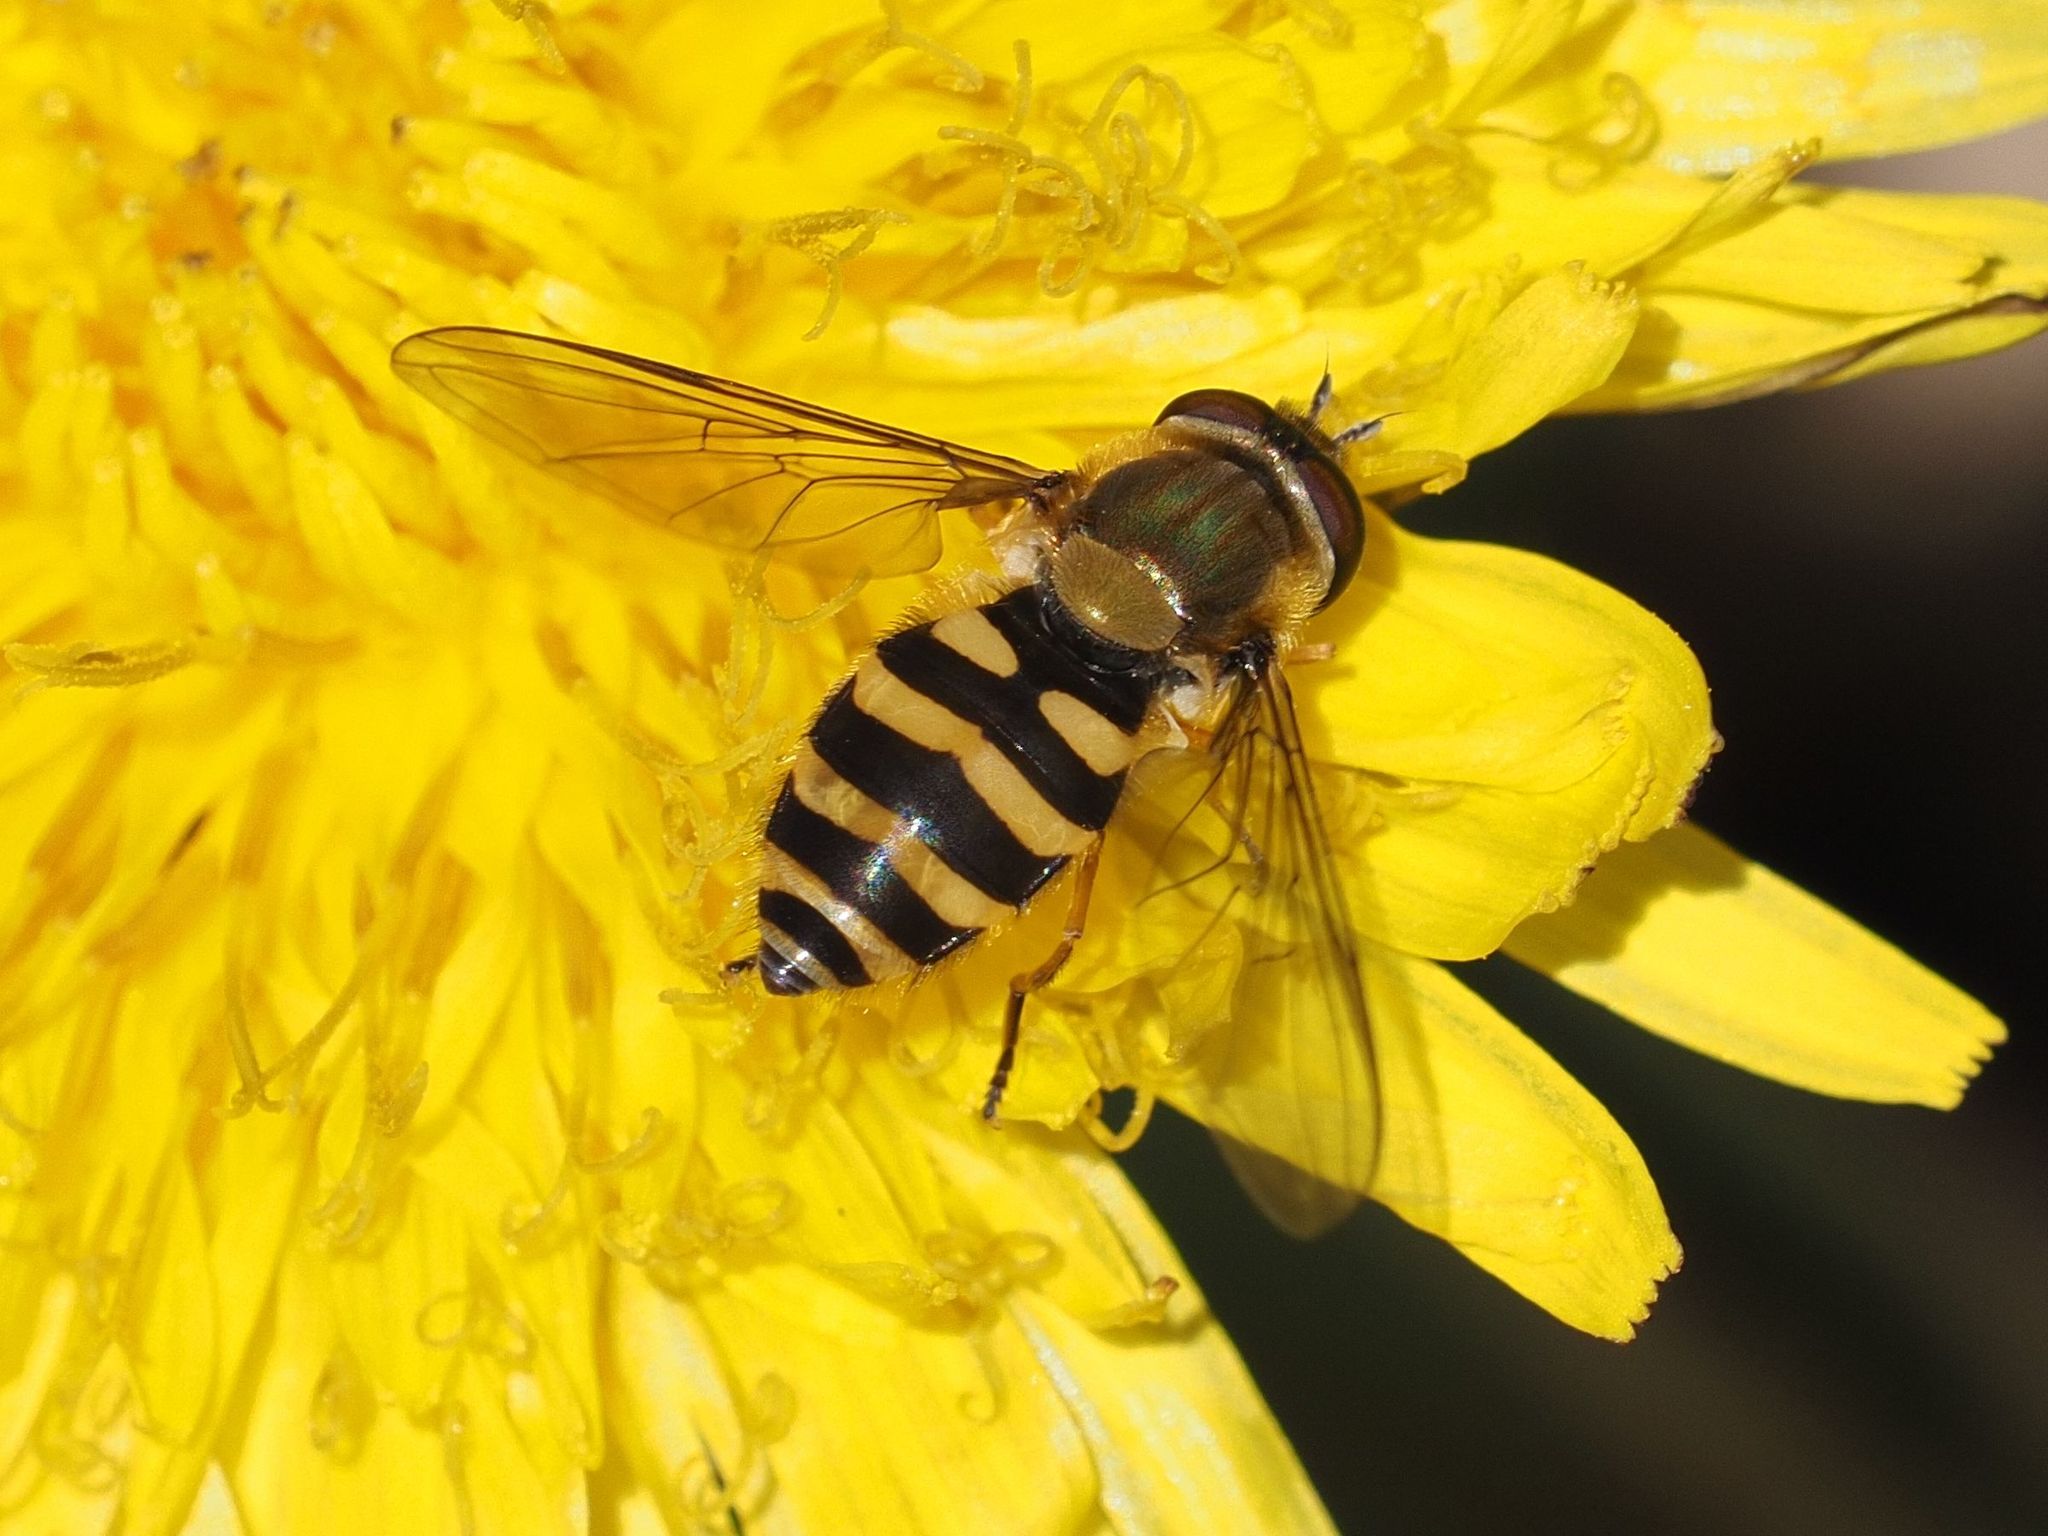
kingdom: Animalia
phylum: Arthropoda
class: Insecta
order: Diptera
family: Syrphidae
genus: Syrphus
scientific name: Syrphus
